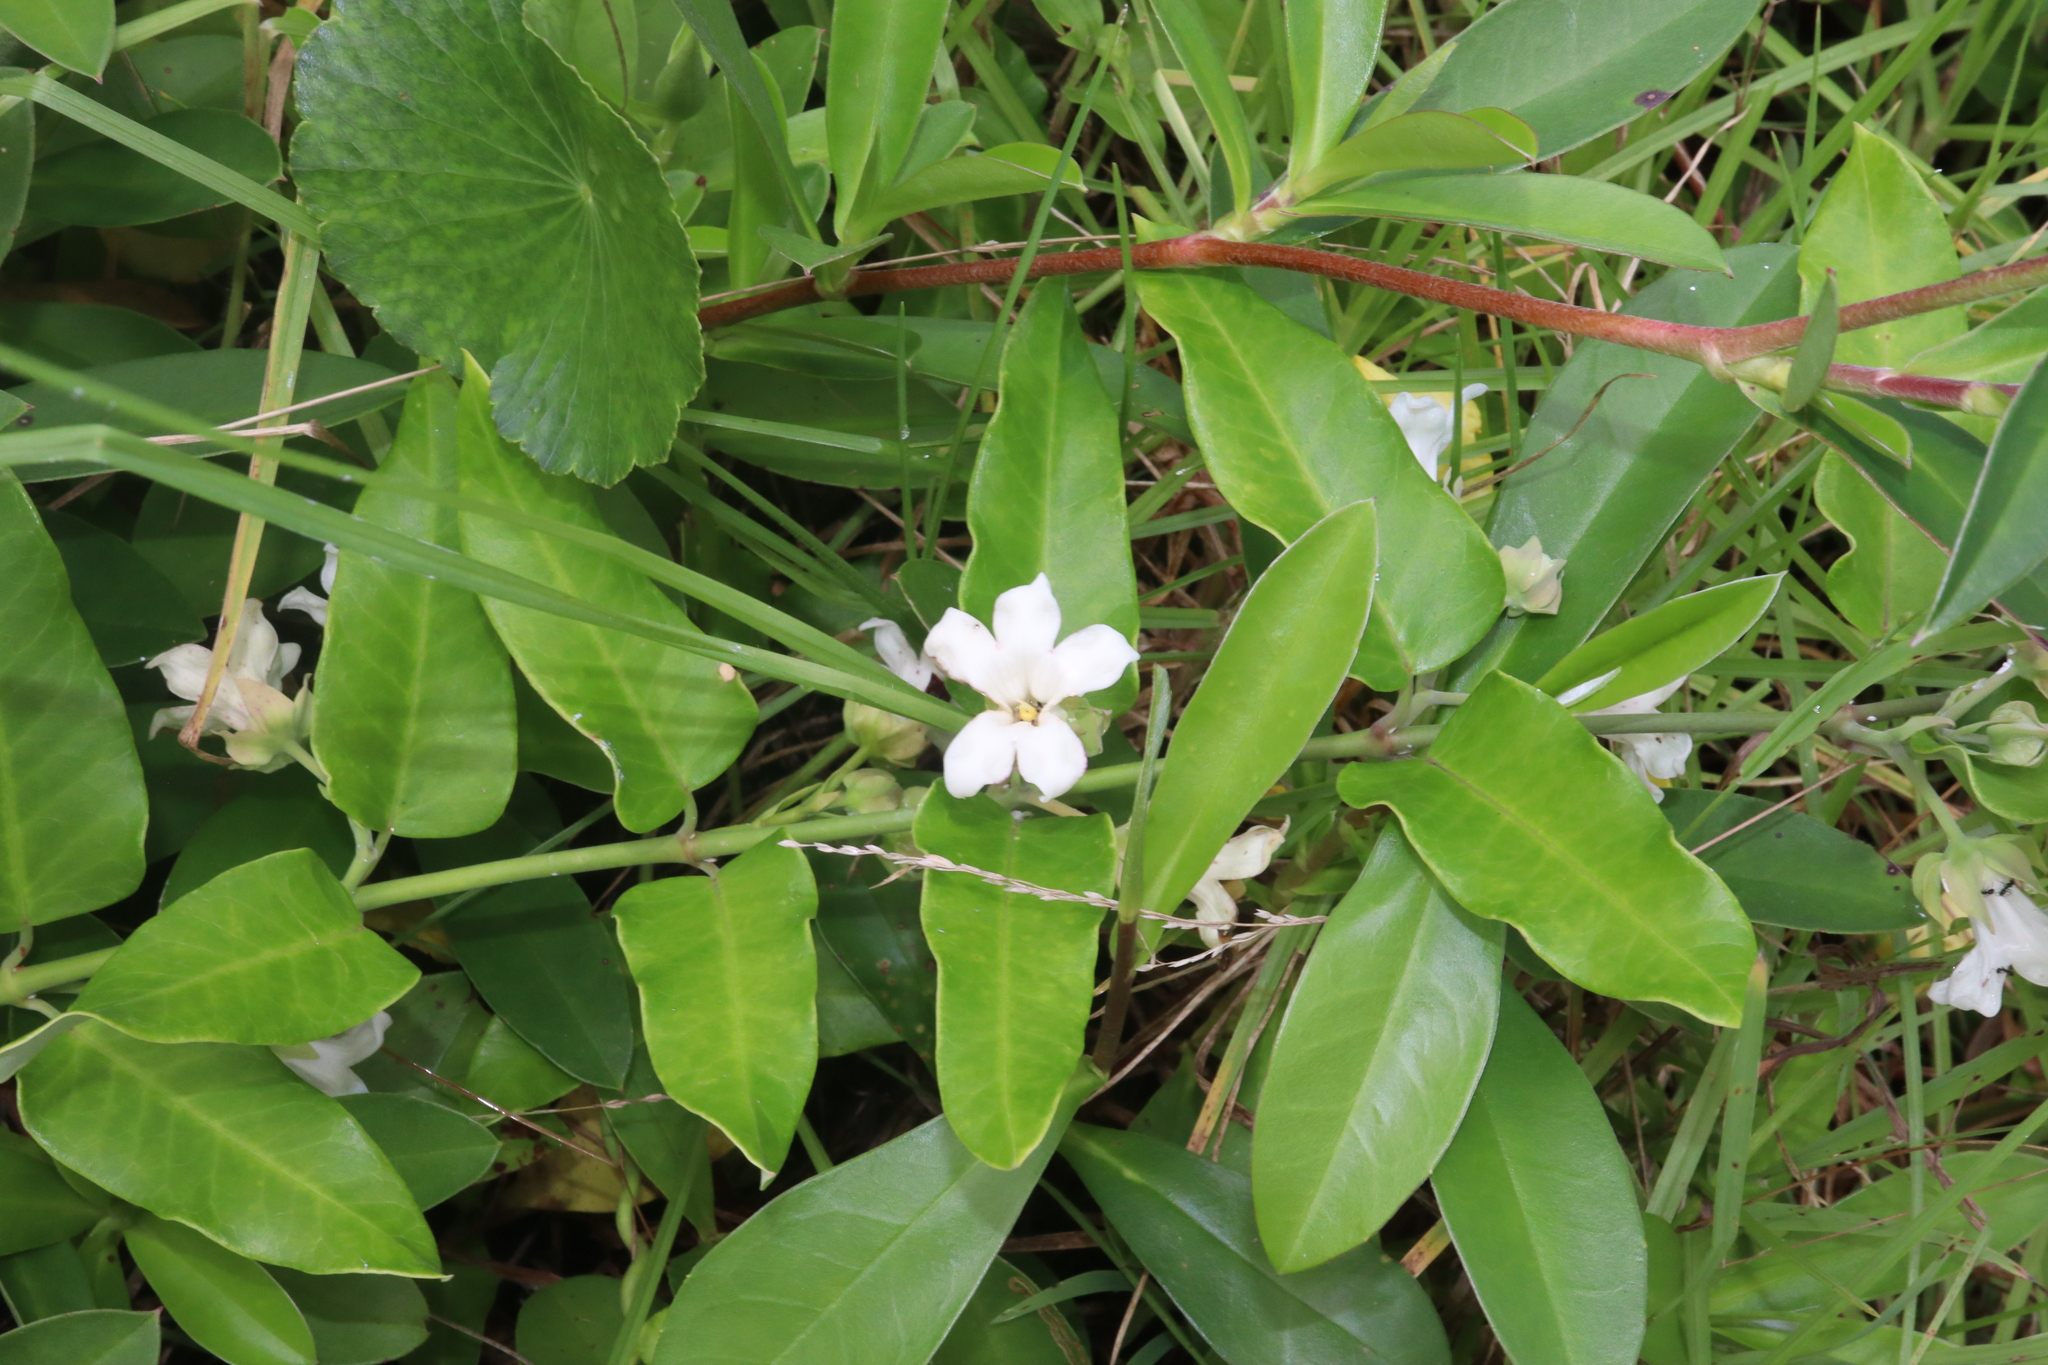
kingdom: Plantae
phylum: Tracheophyta
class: Magnoliopsida
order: Gentianales
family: Apocynaceae
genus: Araujia
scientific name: Araujia sericifera
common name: White bladderflower
